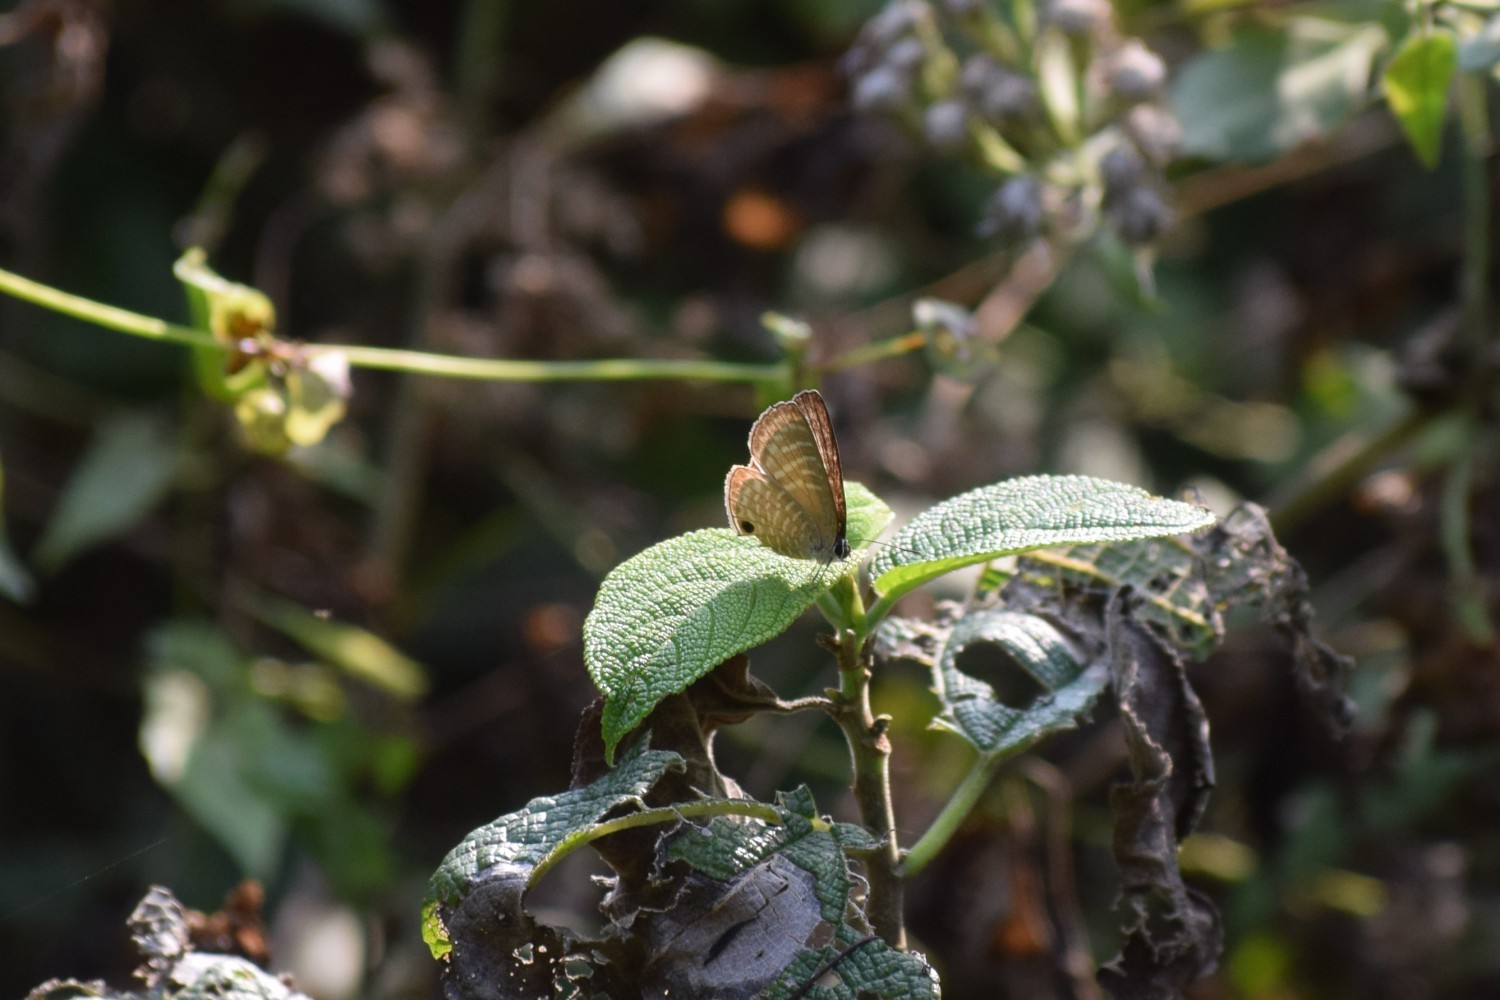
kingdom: Animalia
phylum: Arthropoda
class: Insecta
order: Lepidoptera
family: Lycaenidae
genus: Jamides
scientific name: Jamides celeno
